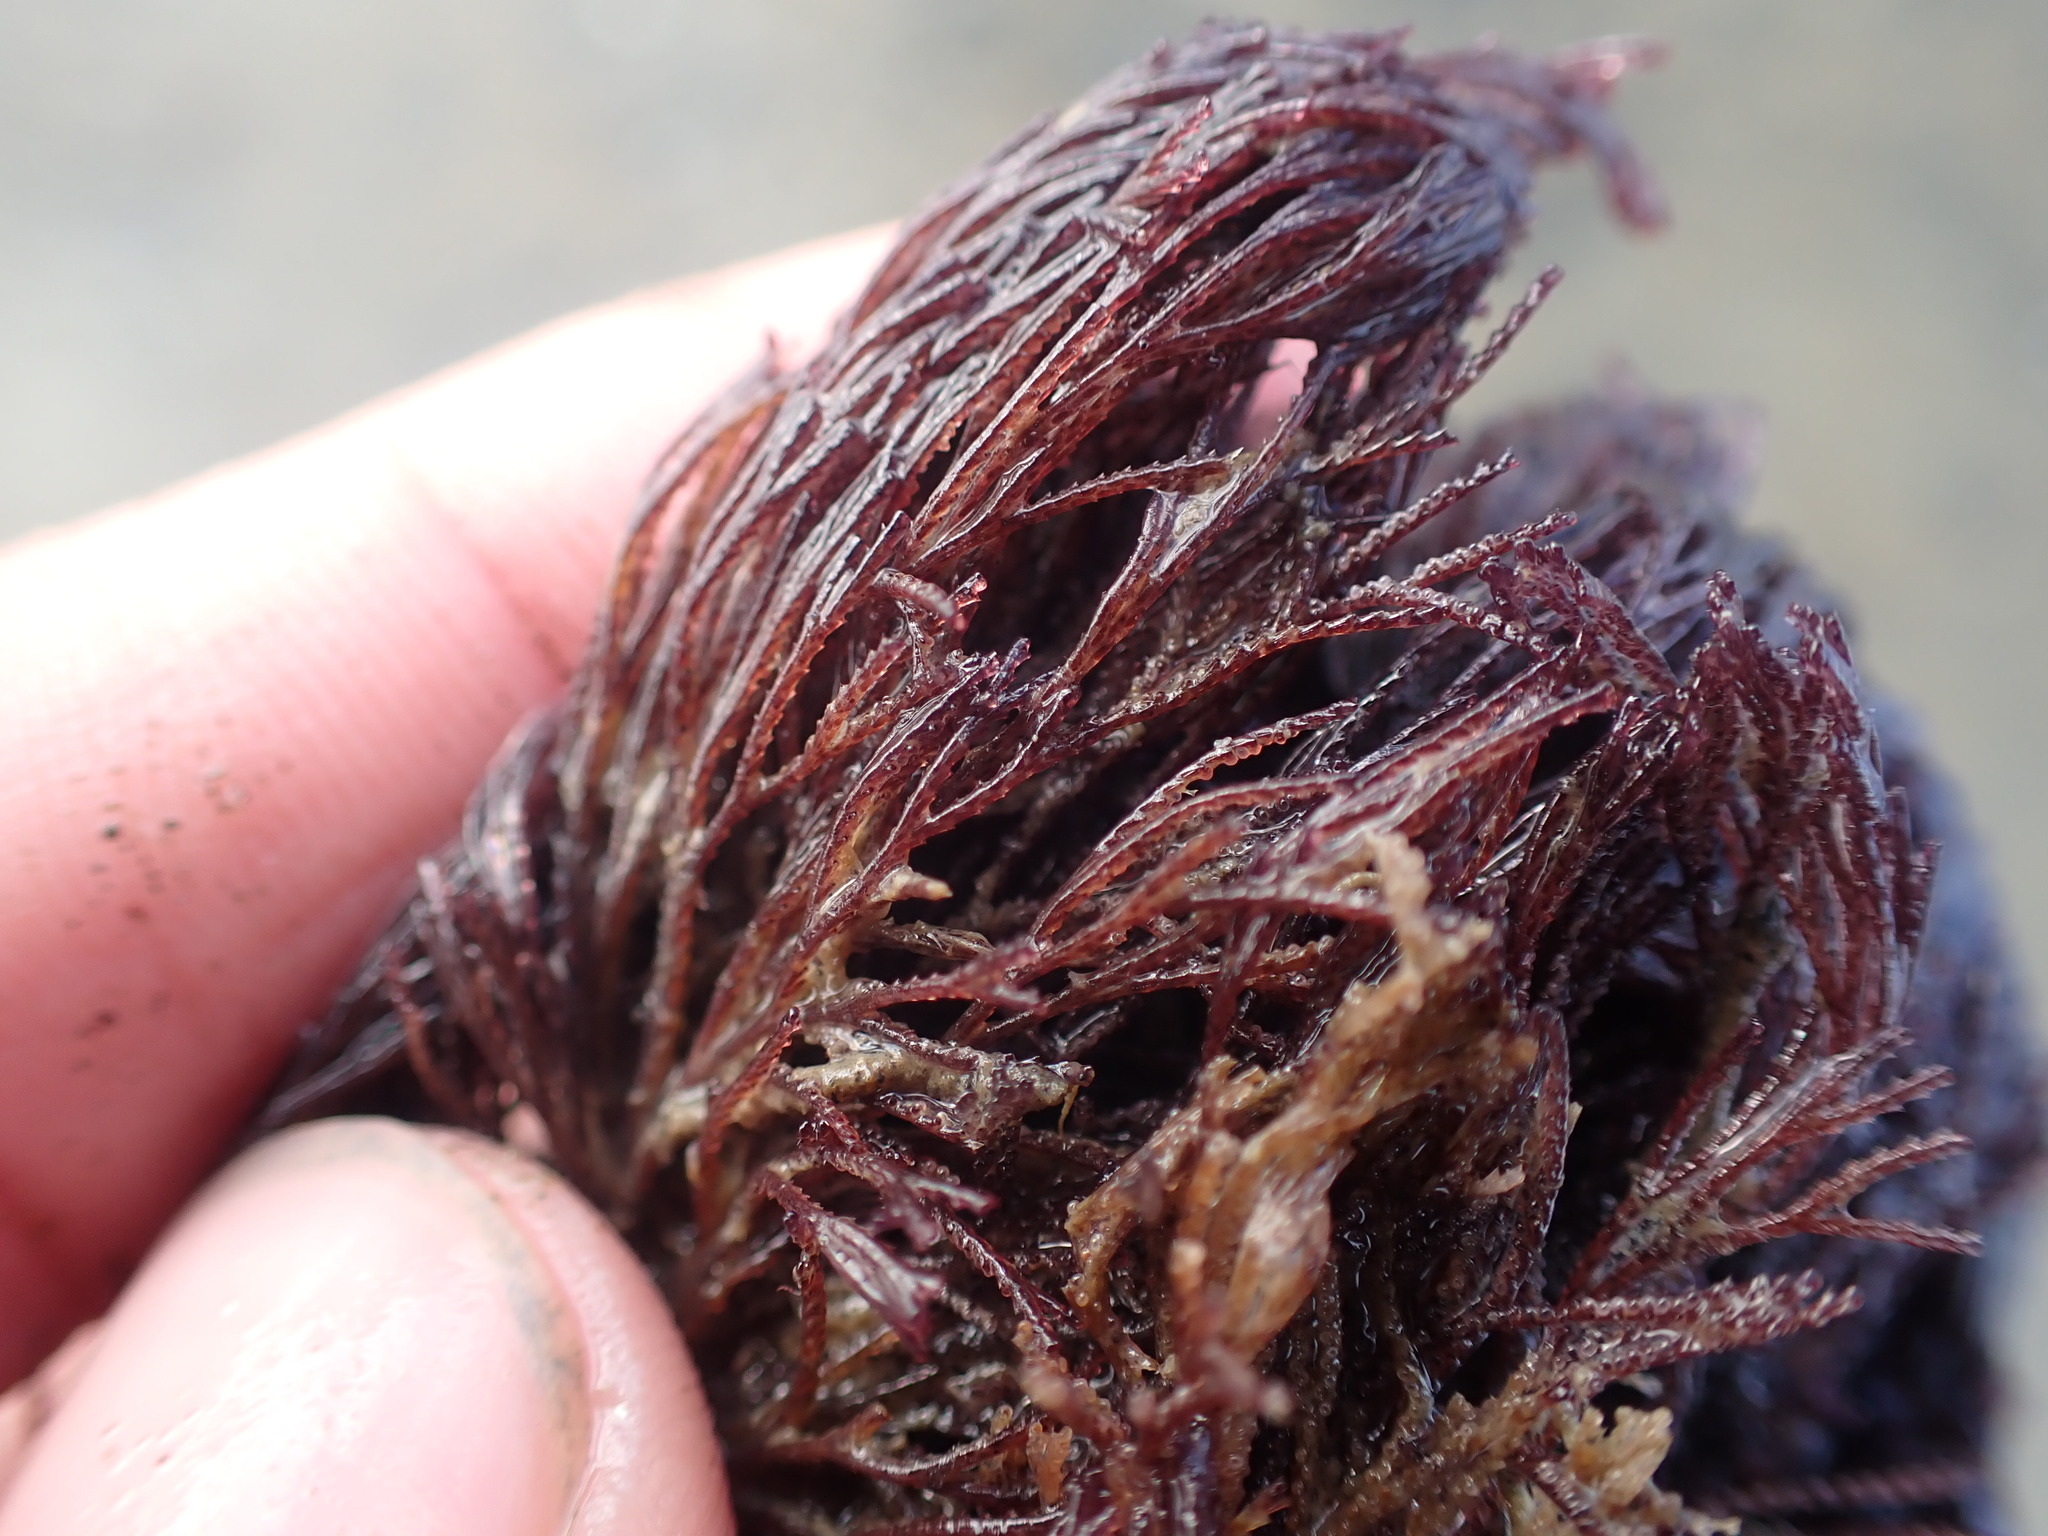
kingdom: Animalia
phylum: Bryozoa
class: Gymnolaemata
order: Cheilostomatida
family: Bugulidae
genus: Bugula
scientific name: Bugula neritina
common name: Brown bryozoan
